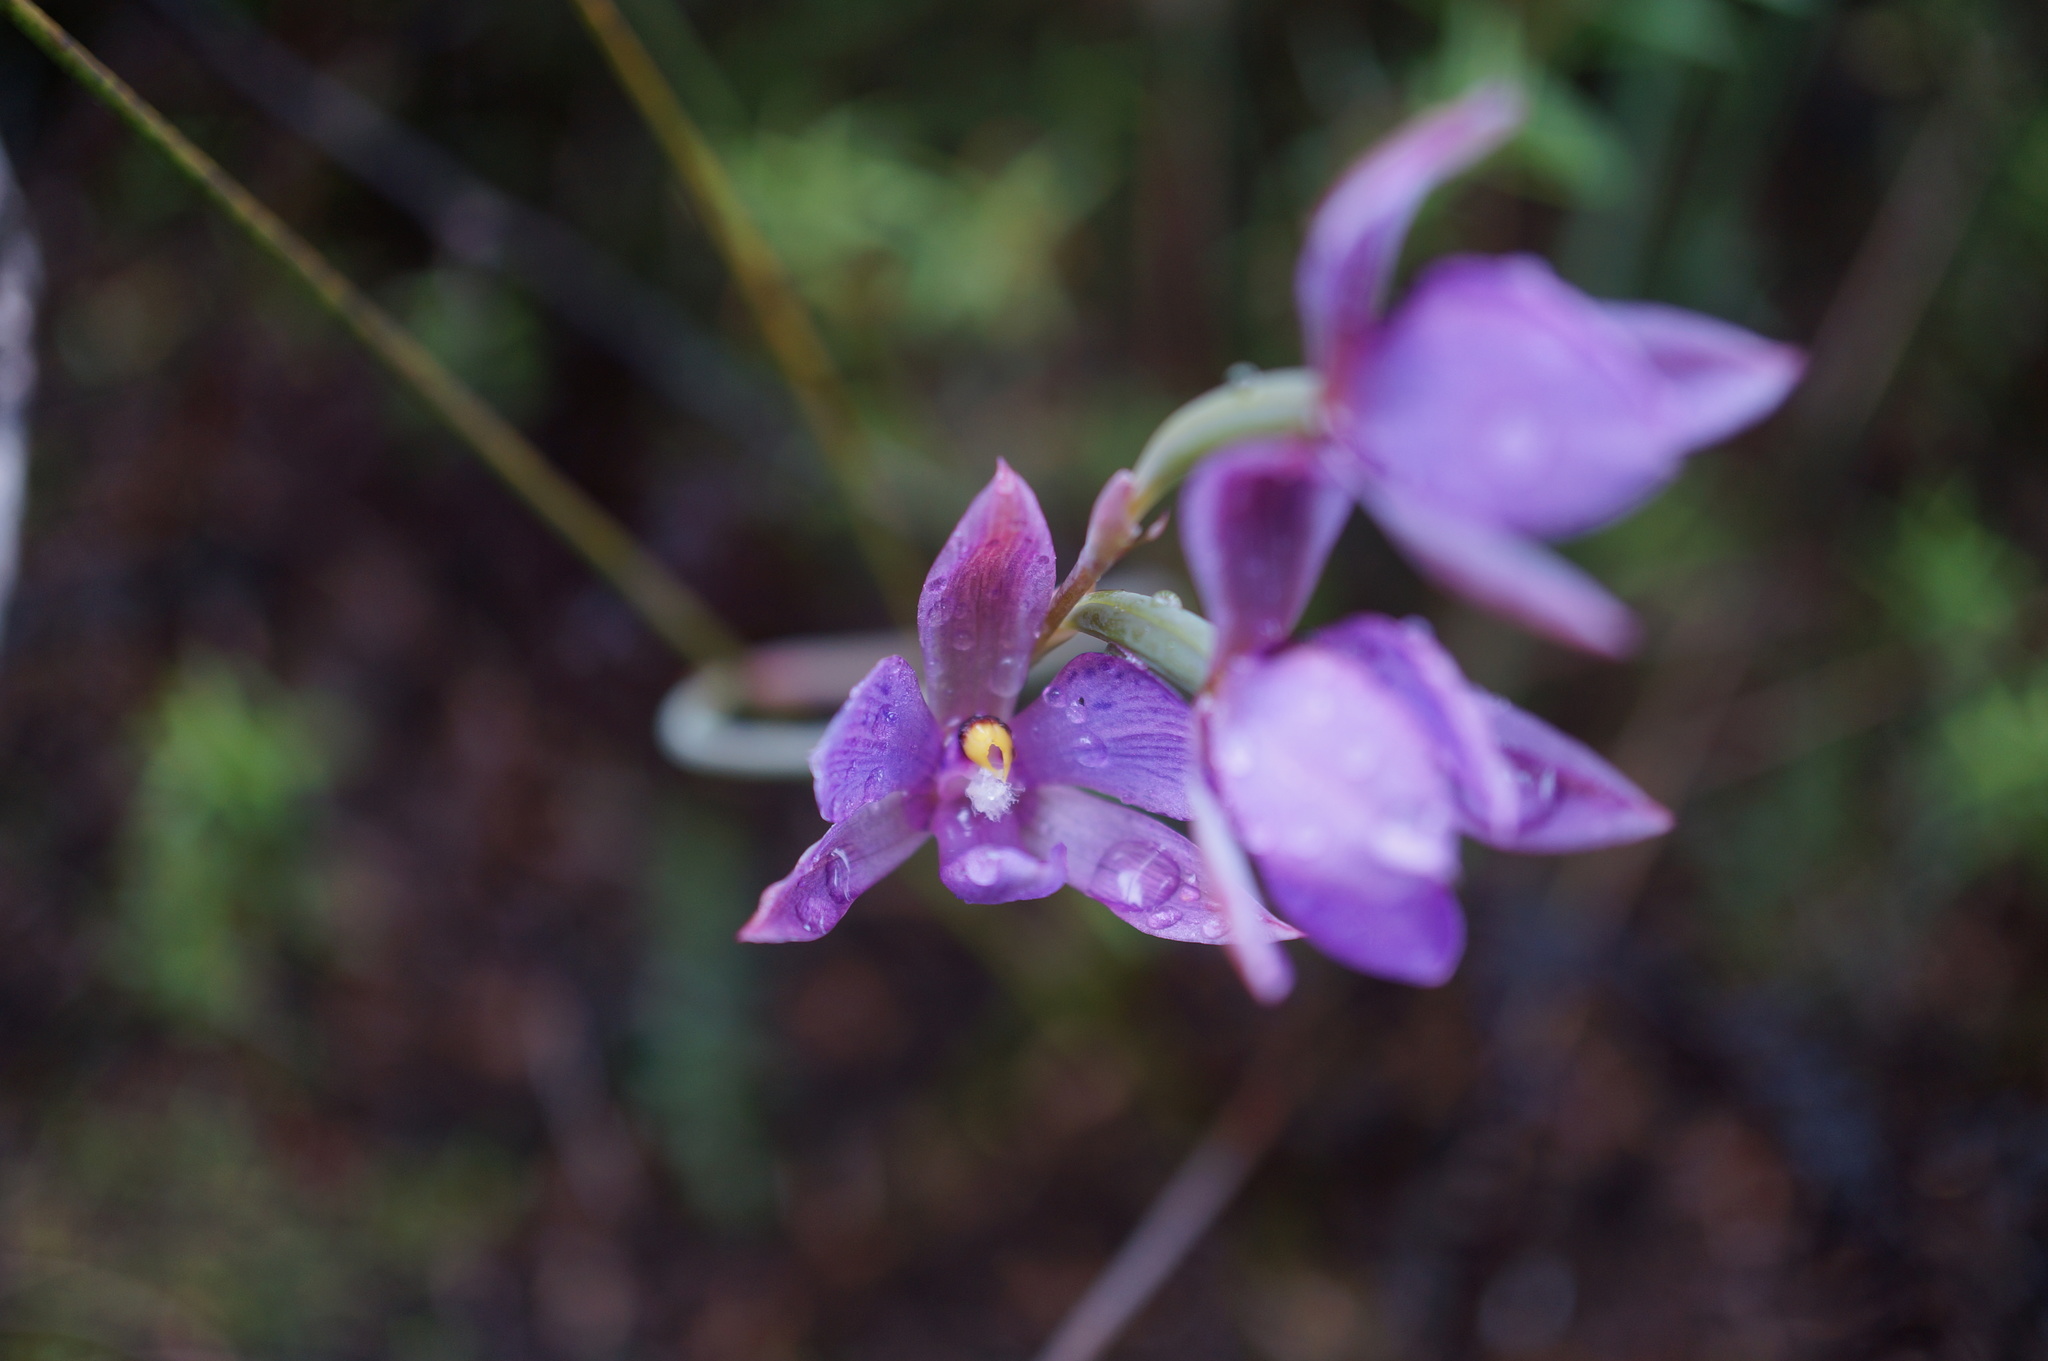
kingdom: Plantae
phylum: Tracheophyta
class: Liliopsida
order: Asparagales
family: Orchidaceae
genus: Thelymitra
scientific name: Thelymitra nervosa
